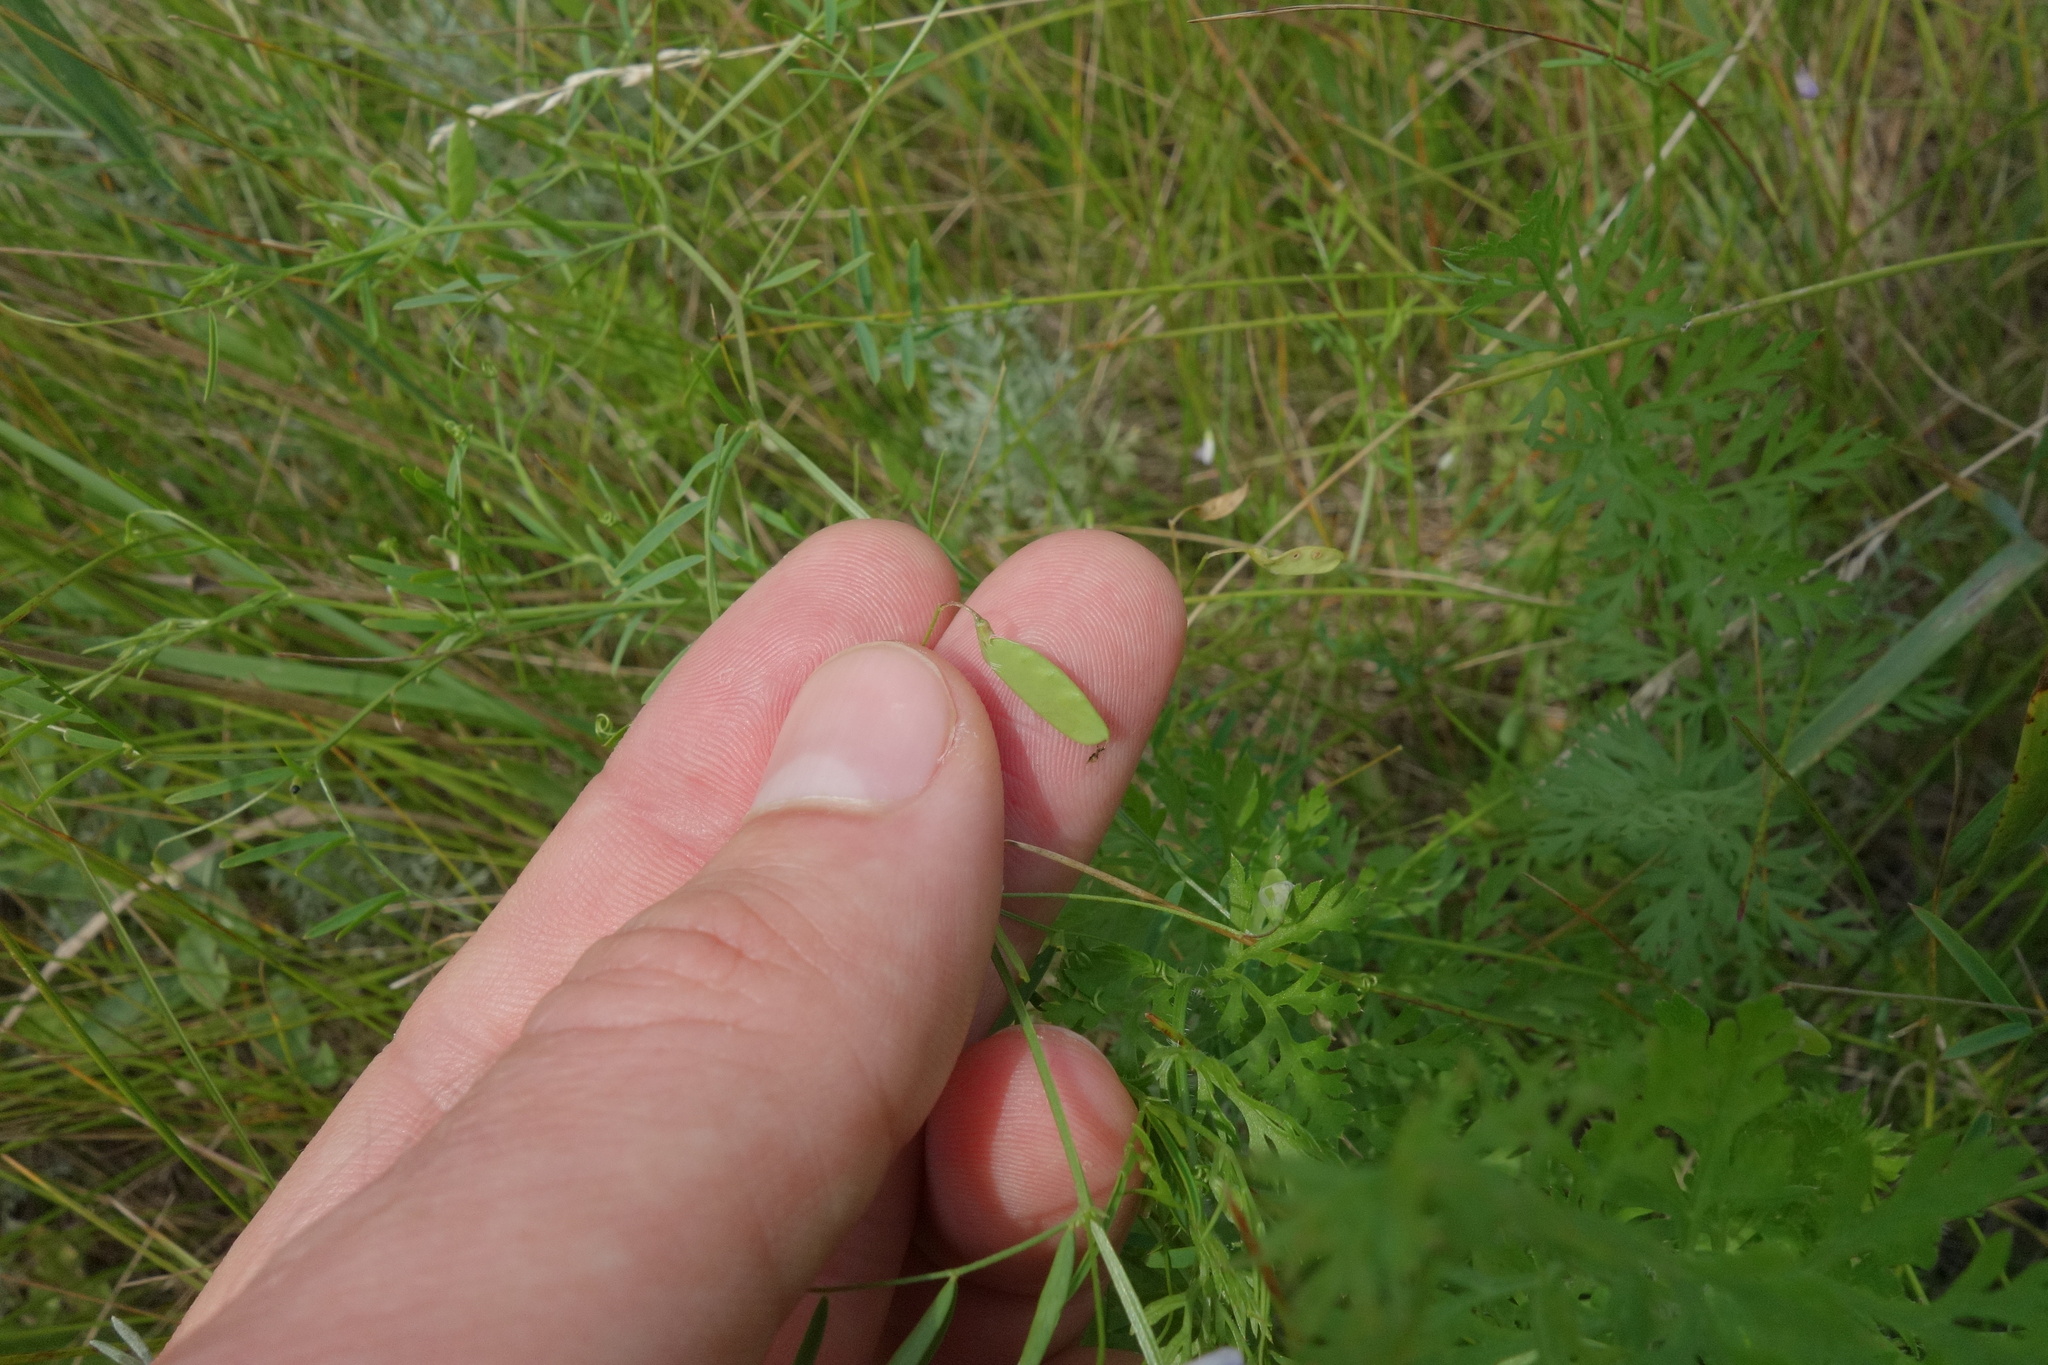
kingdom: Plantae
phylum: Tracheophyta
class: Magnoliopsida
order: Fabales
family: Fabaceae
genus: Vicia
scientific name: Vicia tetrasperma
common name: Smooth tare
